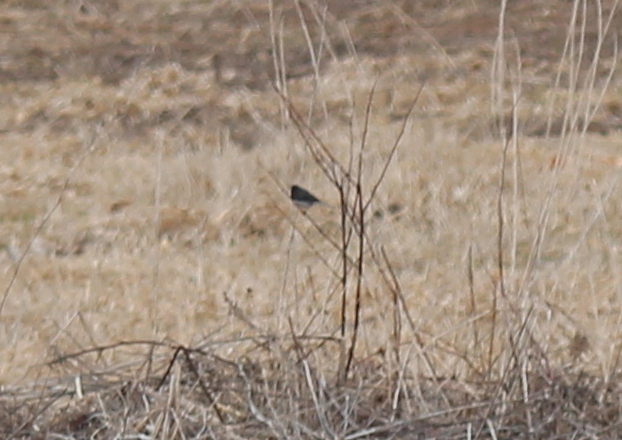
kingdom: Animalia
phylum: Chordata
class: Aves
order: Passeriformes
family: Passerellidae
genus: Junco
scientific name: Junco hyemalis
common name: Dark-eyed junco
